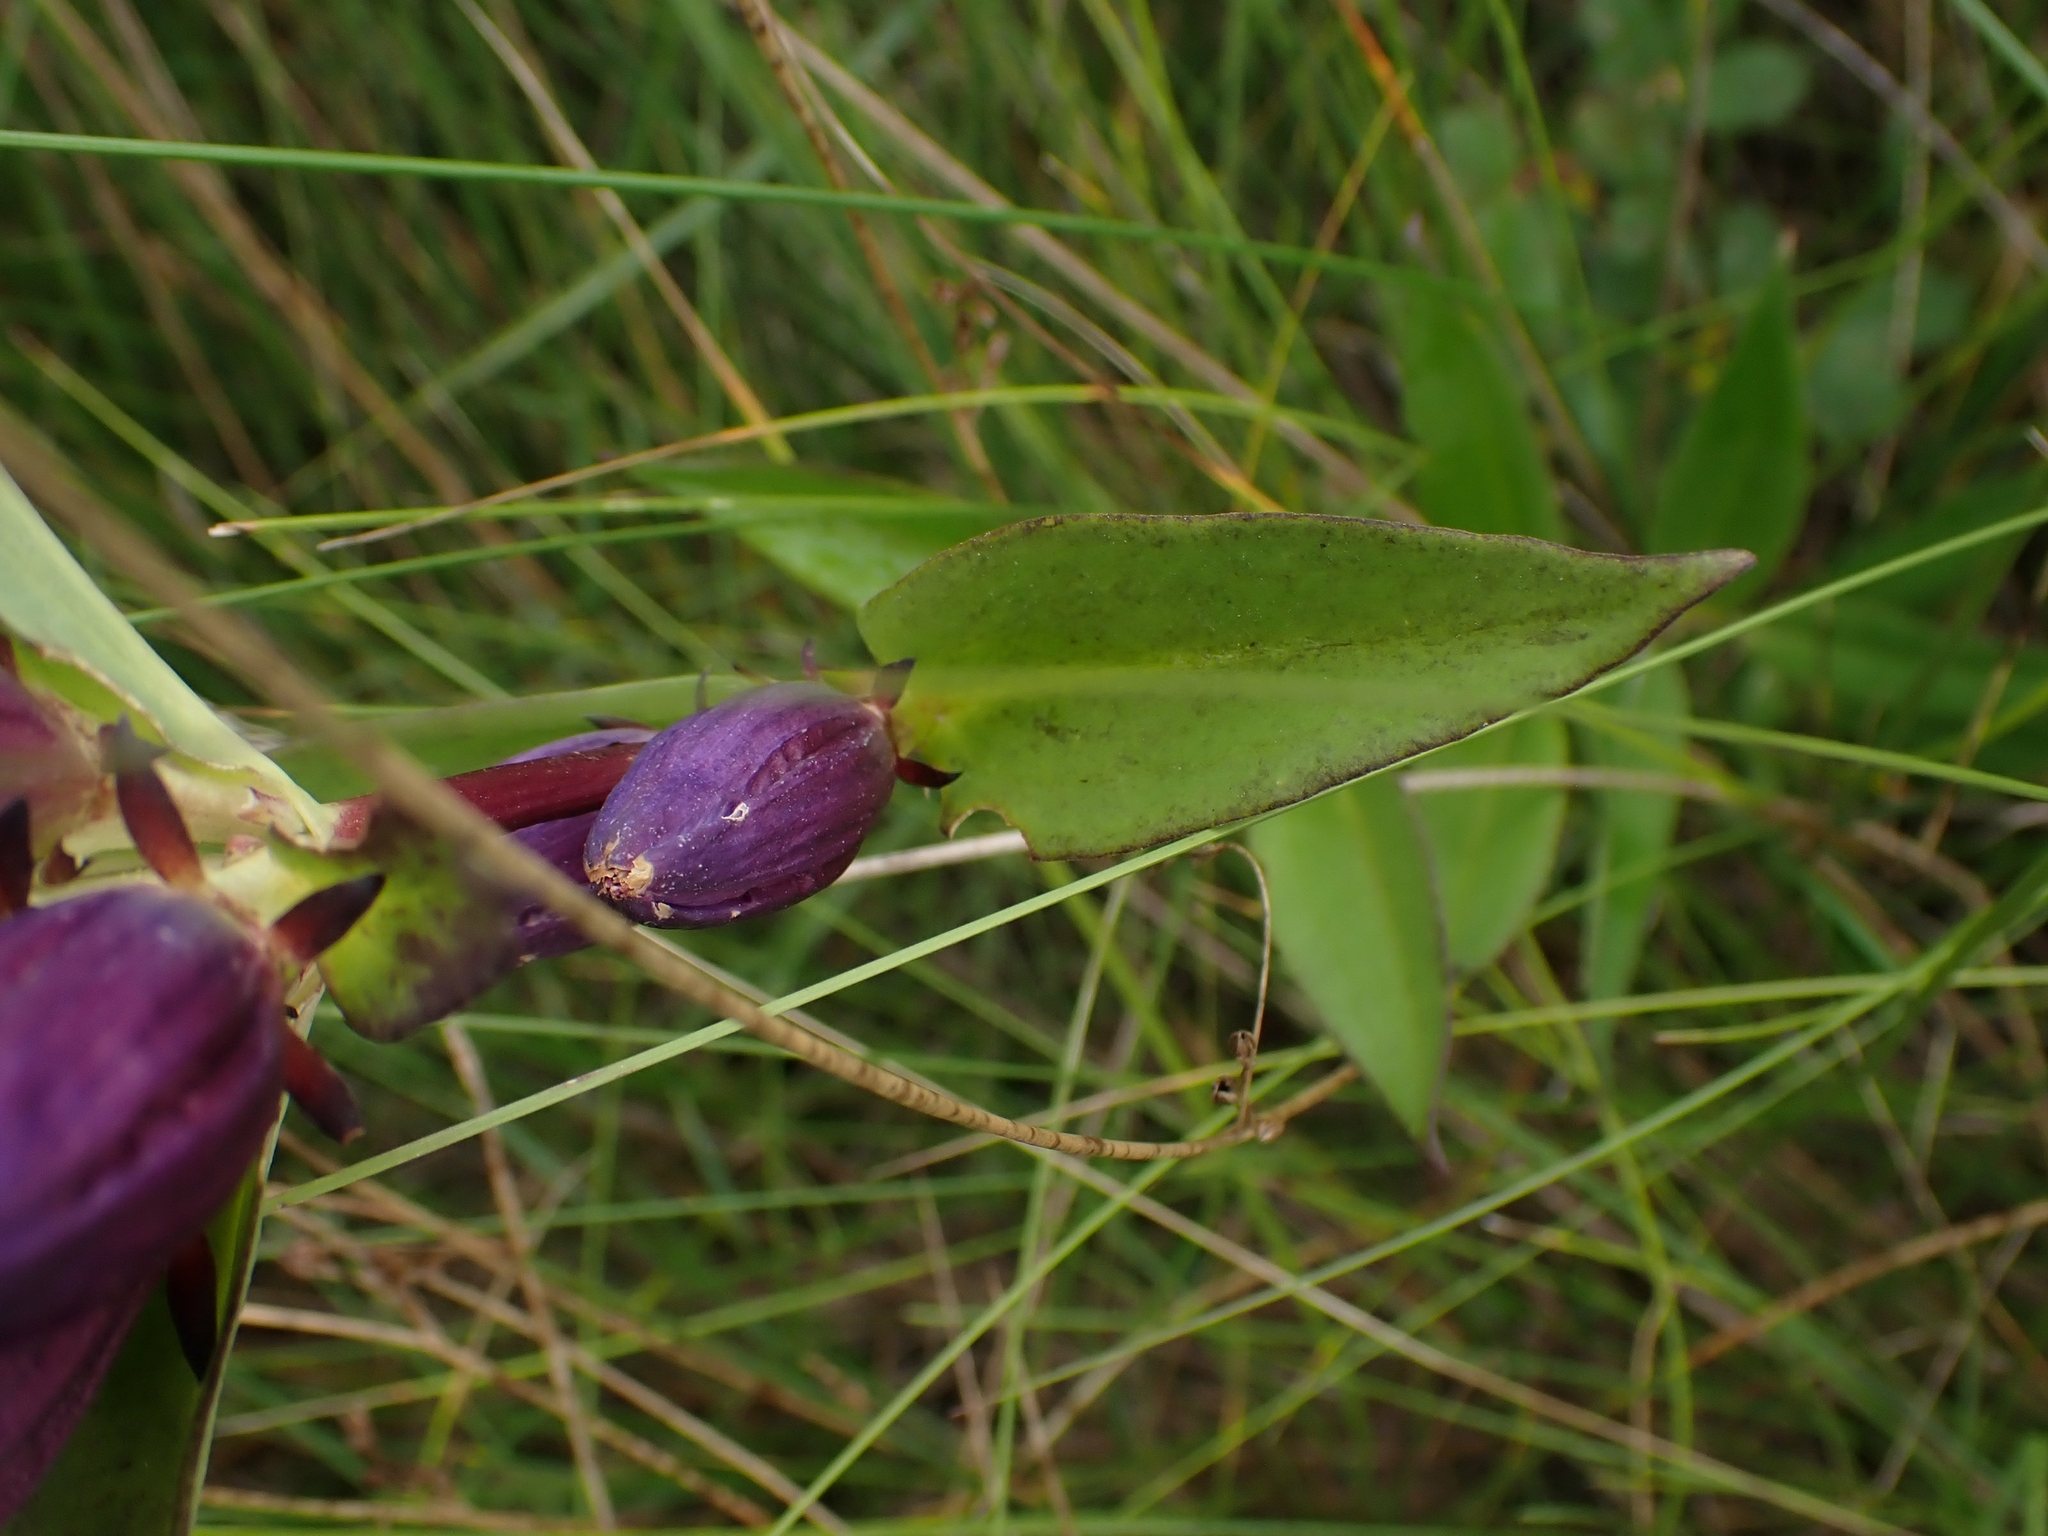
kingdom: Plantae
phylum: Tracheophyta
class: Magnoliopsida
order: Gentianales
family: Gentianaceae
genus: Gentiana
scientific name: Gentiana andrewsii
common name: Bottle gentian
